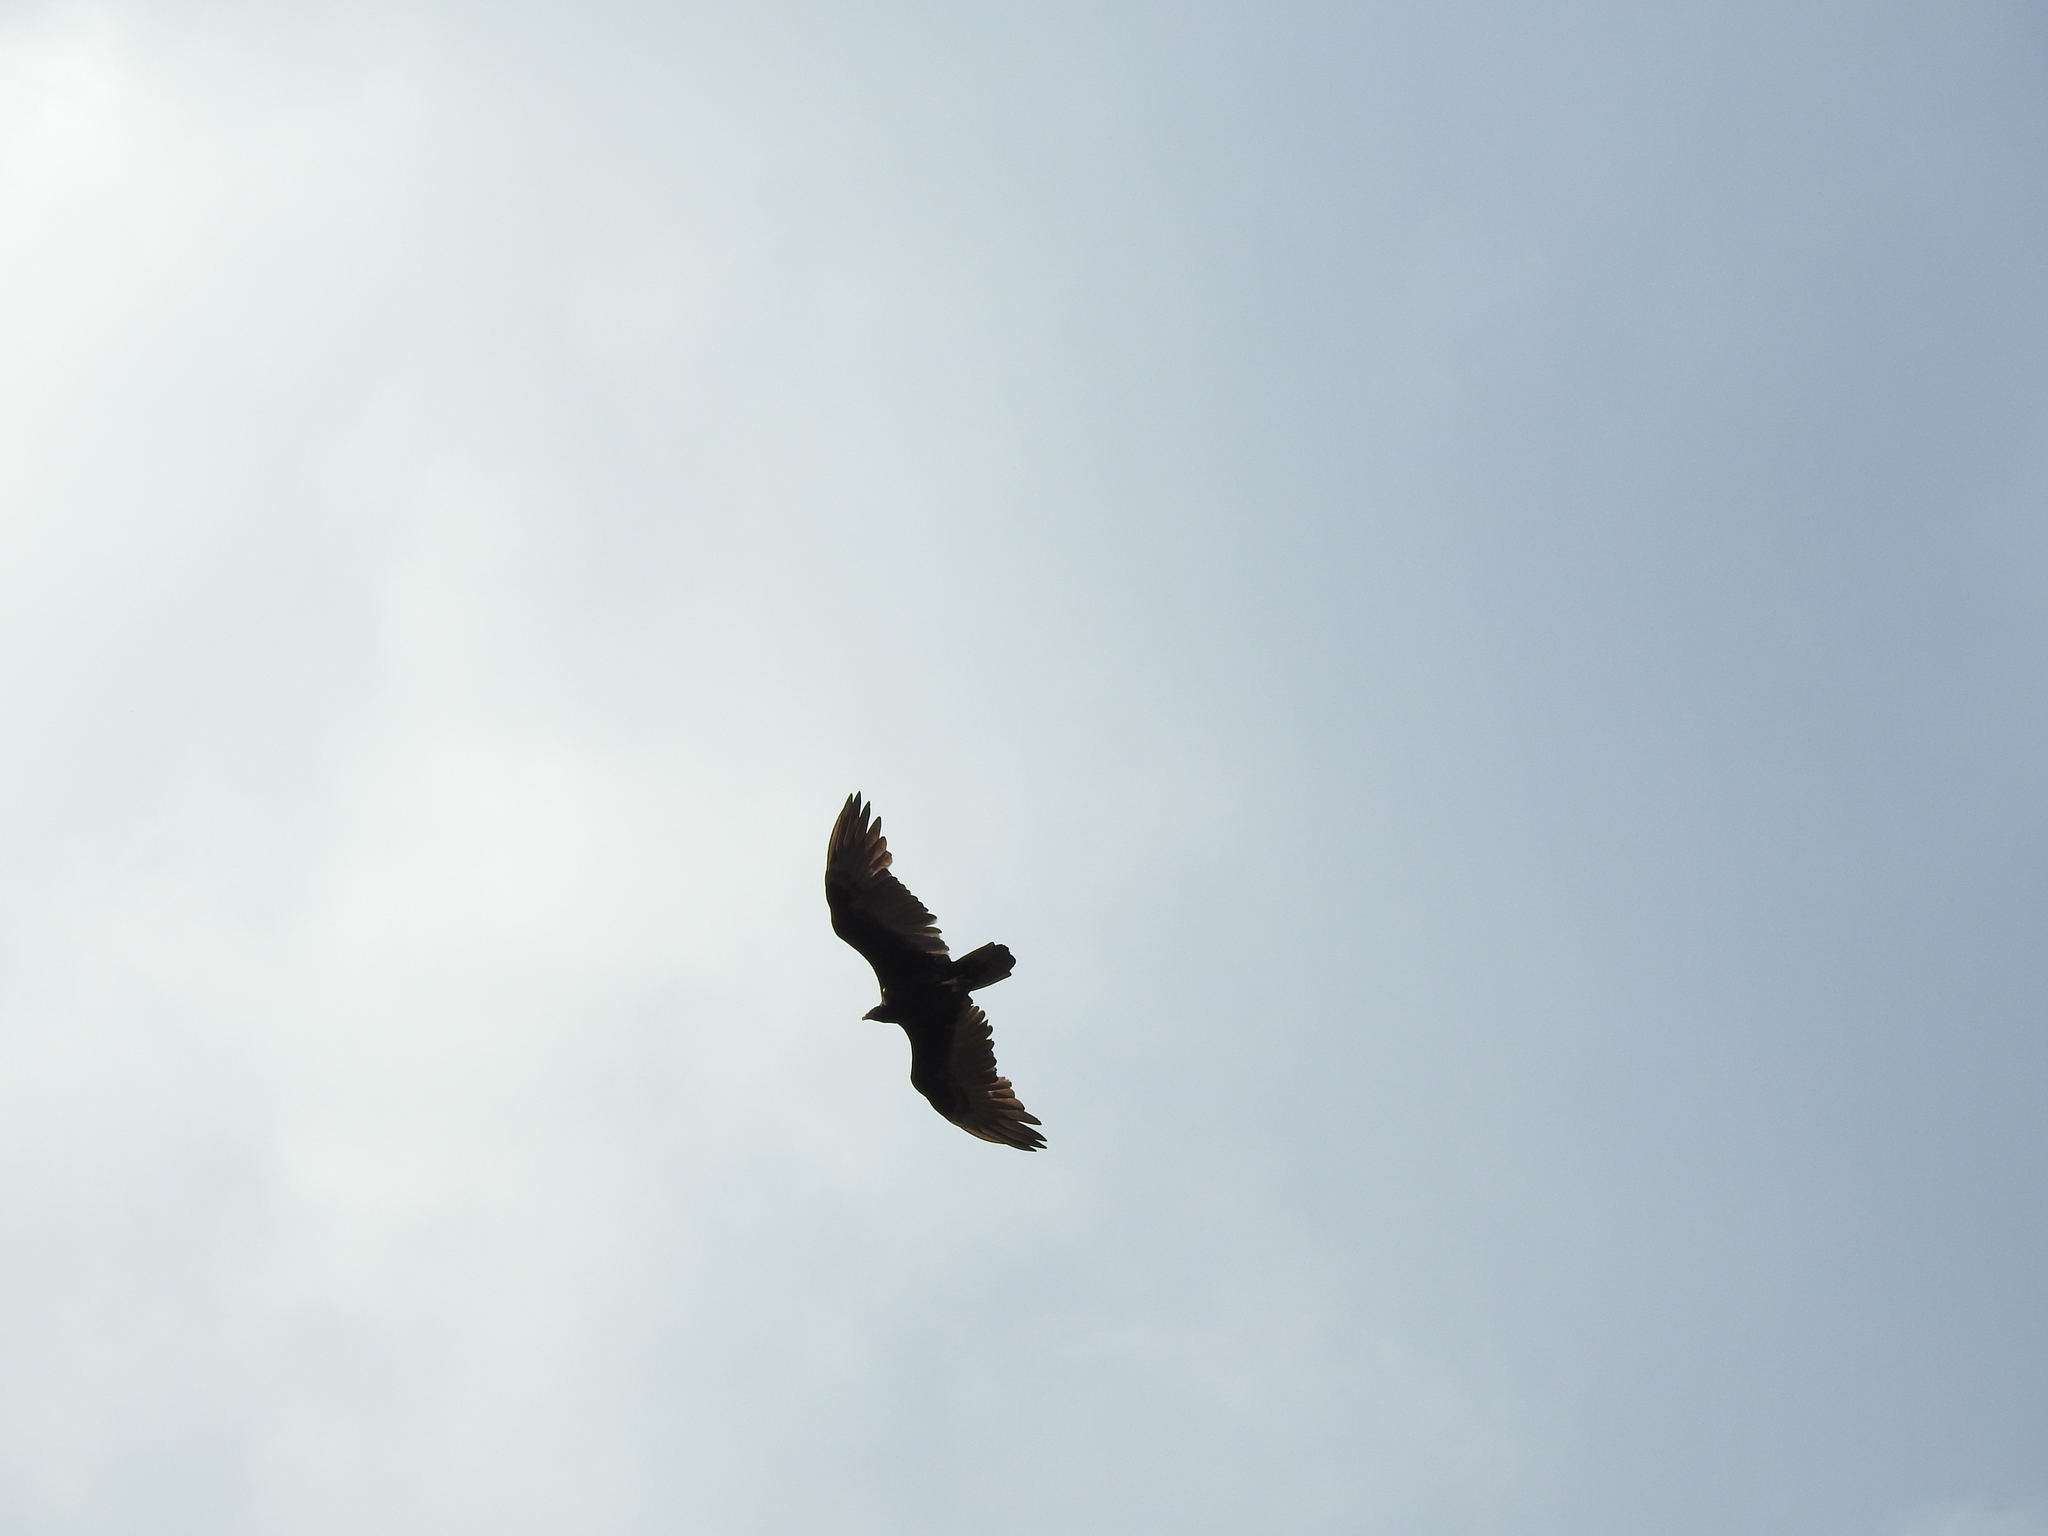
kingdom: Animalia
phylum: Chordata
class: Aves
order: Accipitriformes
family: Cathartidae
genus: Cathartes
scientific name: Cathartes aura
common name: Turkey vulture
